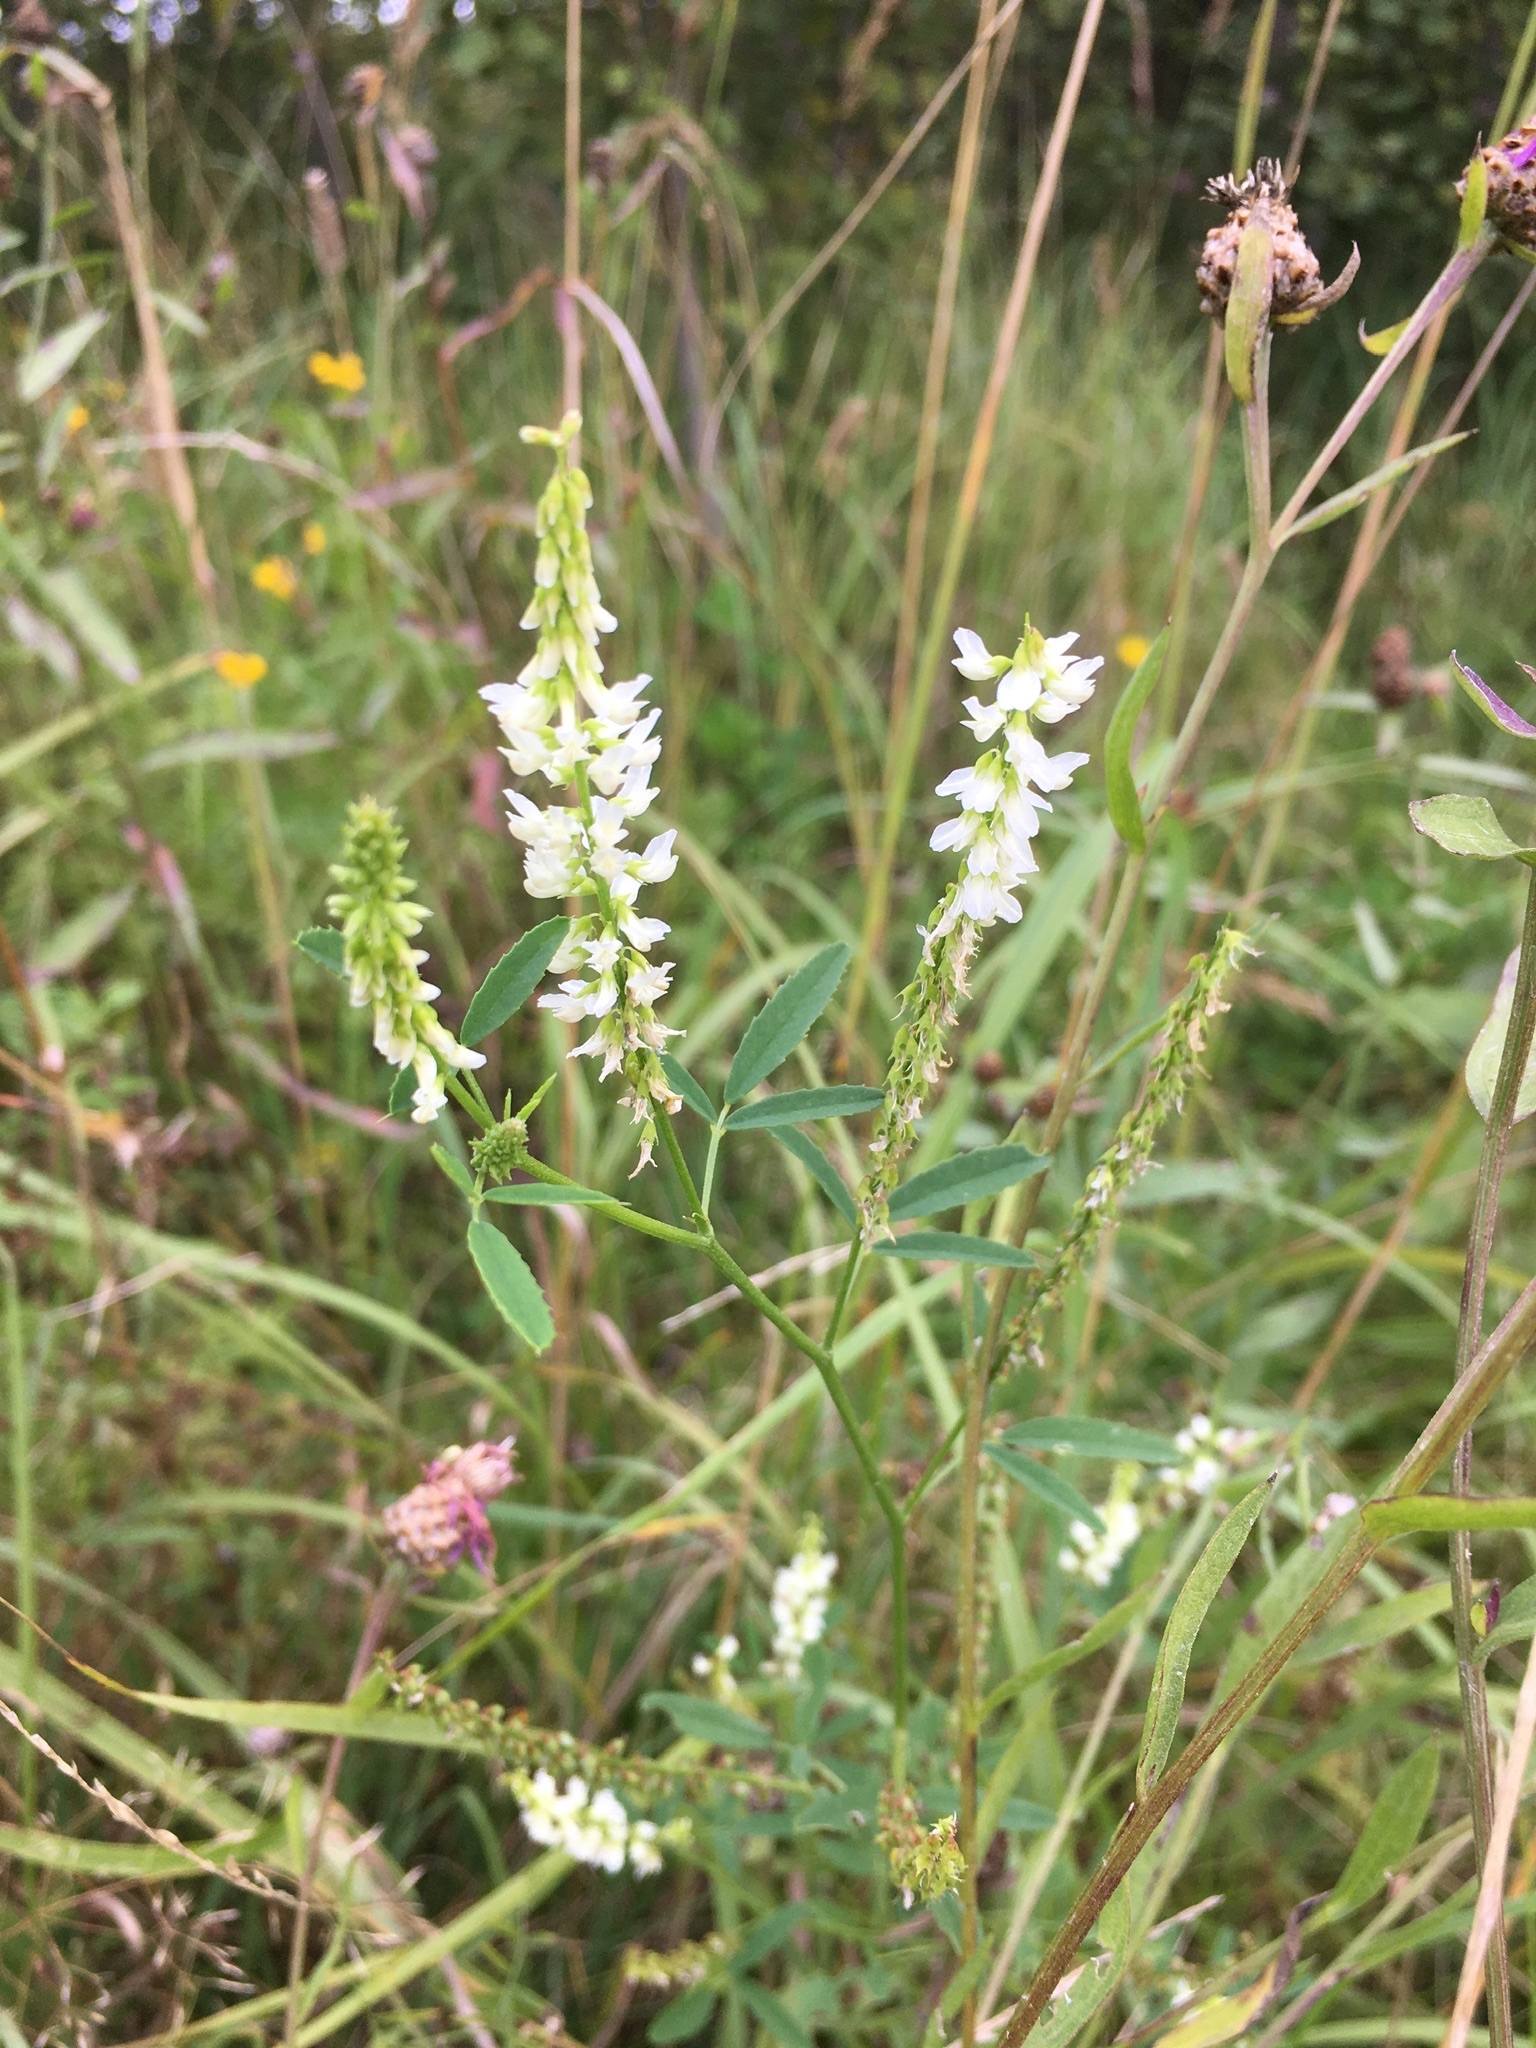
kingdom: Plantae
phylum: Tracheophyta
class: Magnoliopsida
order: Fabales
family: Fabaceae
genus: Melilotus
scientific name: Melilotus albus
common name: White melilot
